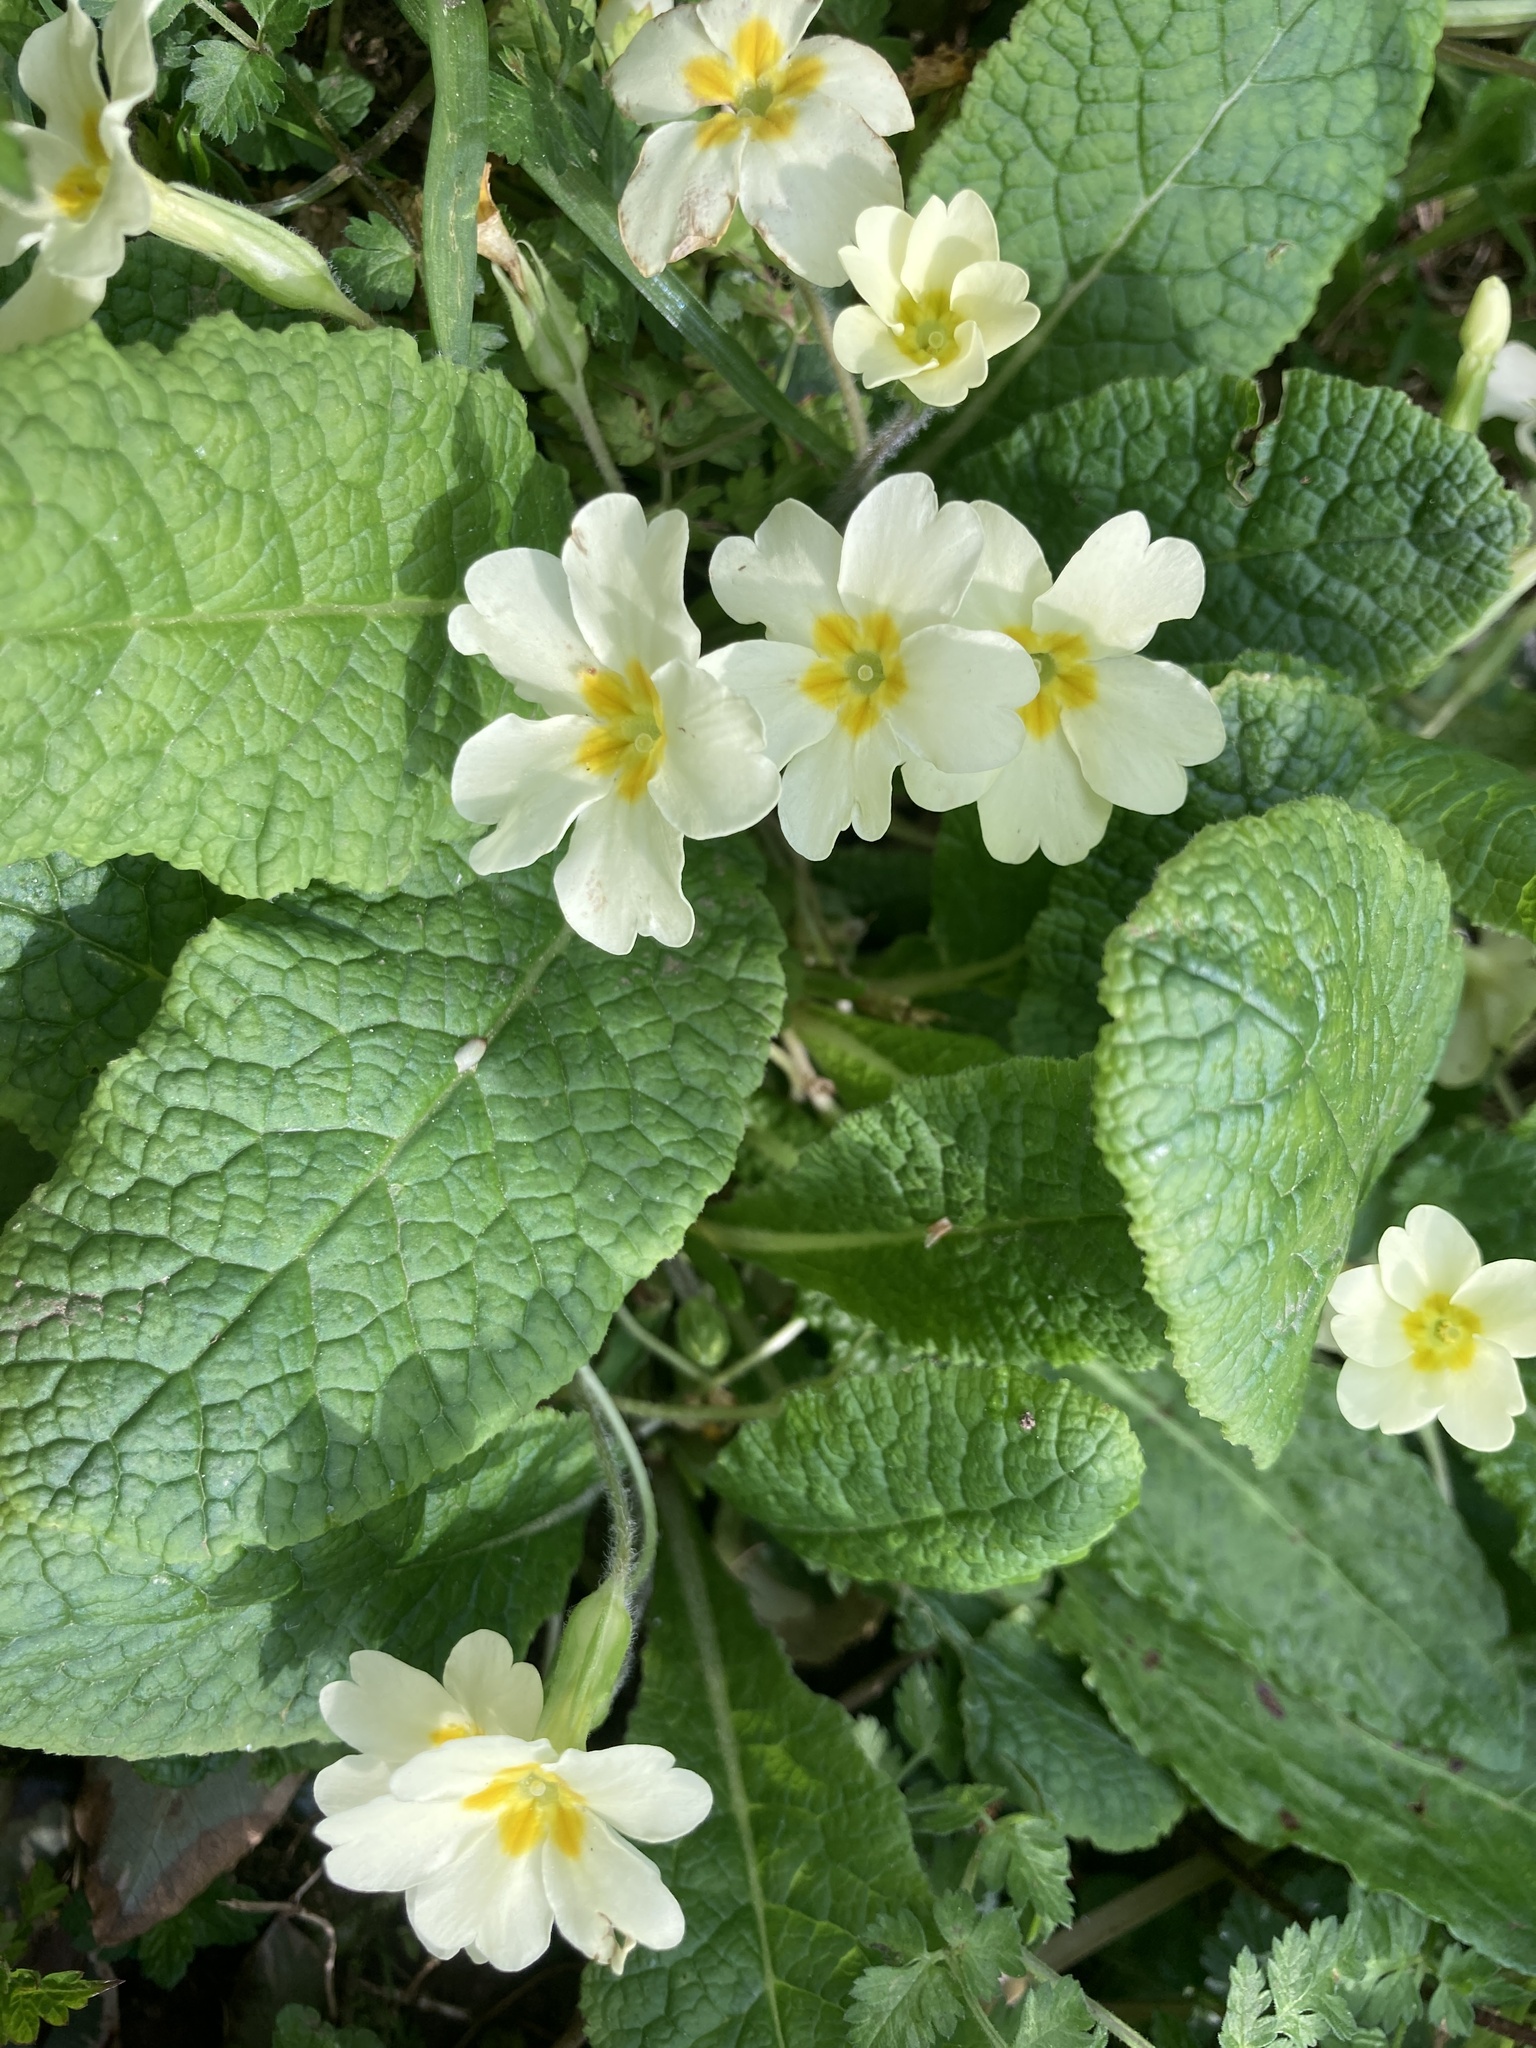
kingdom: Plantae
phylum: Tracheophyta
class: Magnoliopsida
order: Ericales
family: Primulaceae
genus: Primula
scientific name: Primula vulgaris
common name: Primrose
